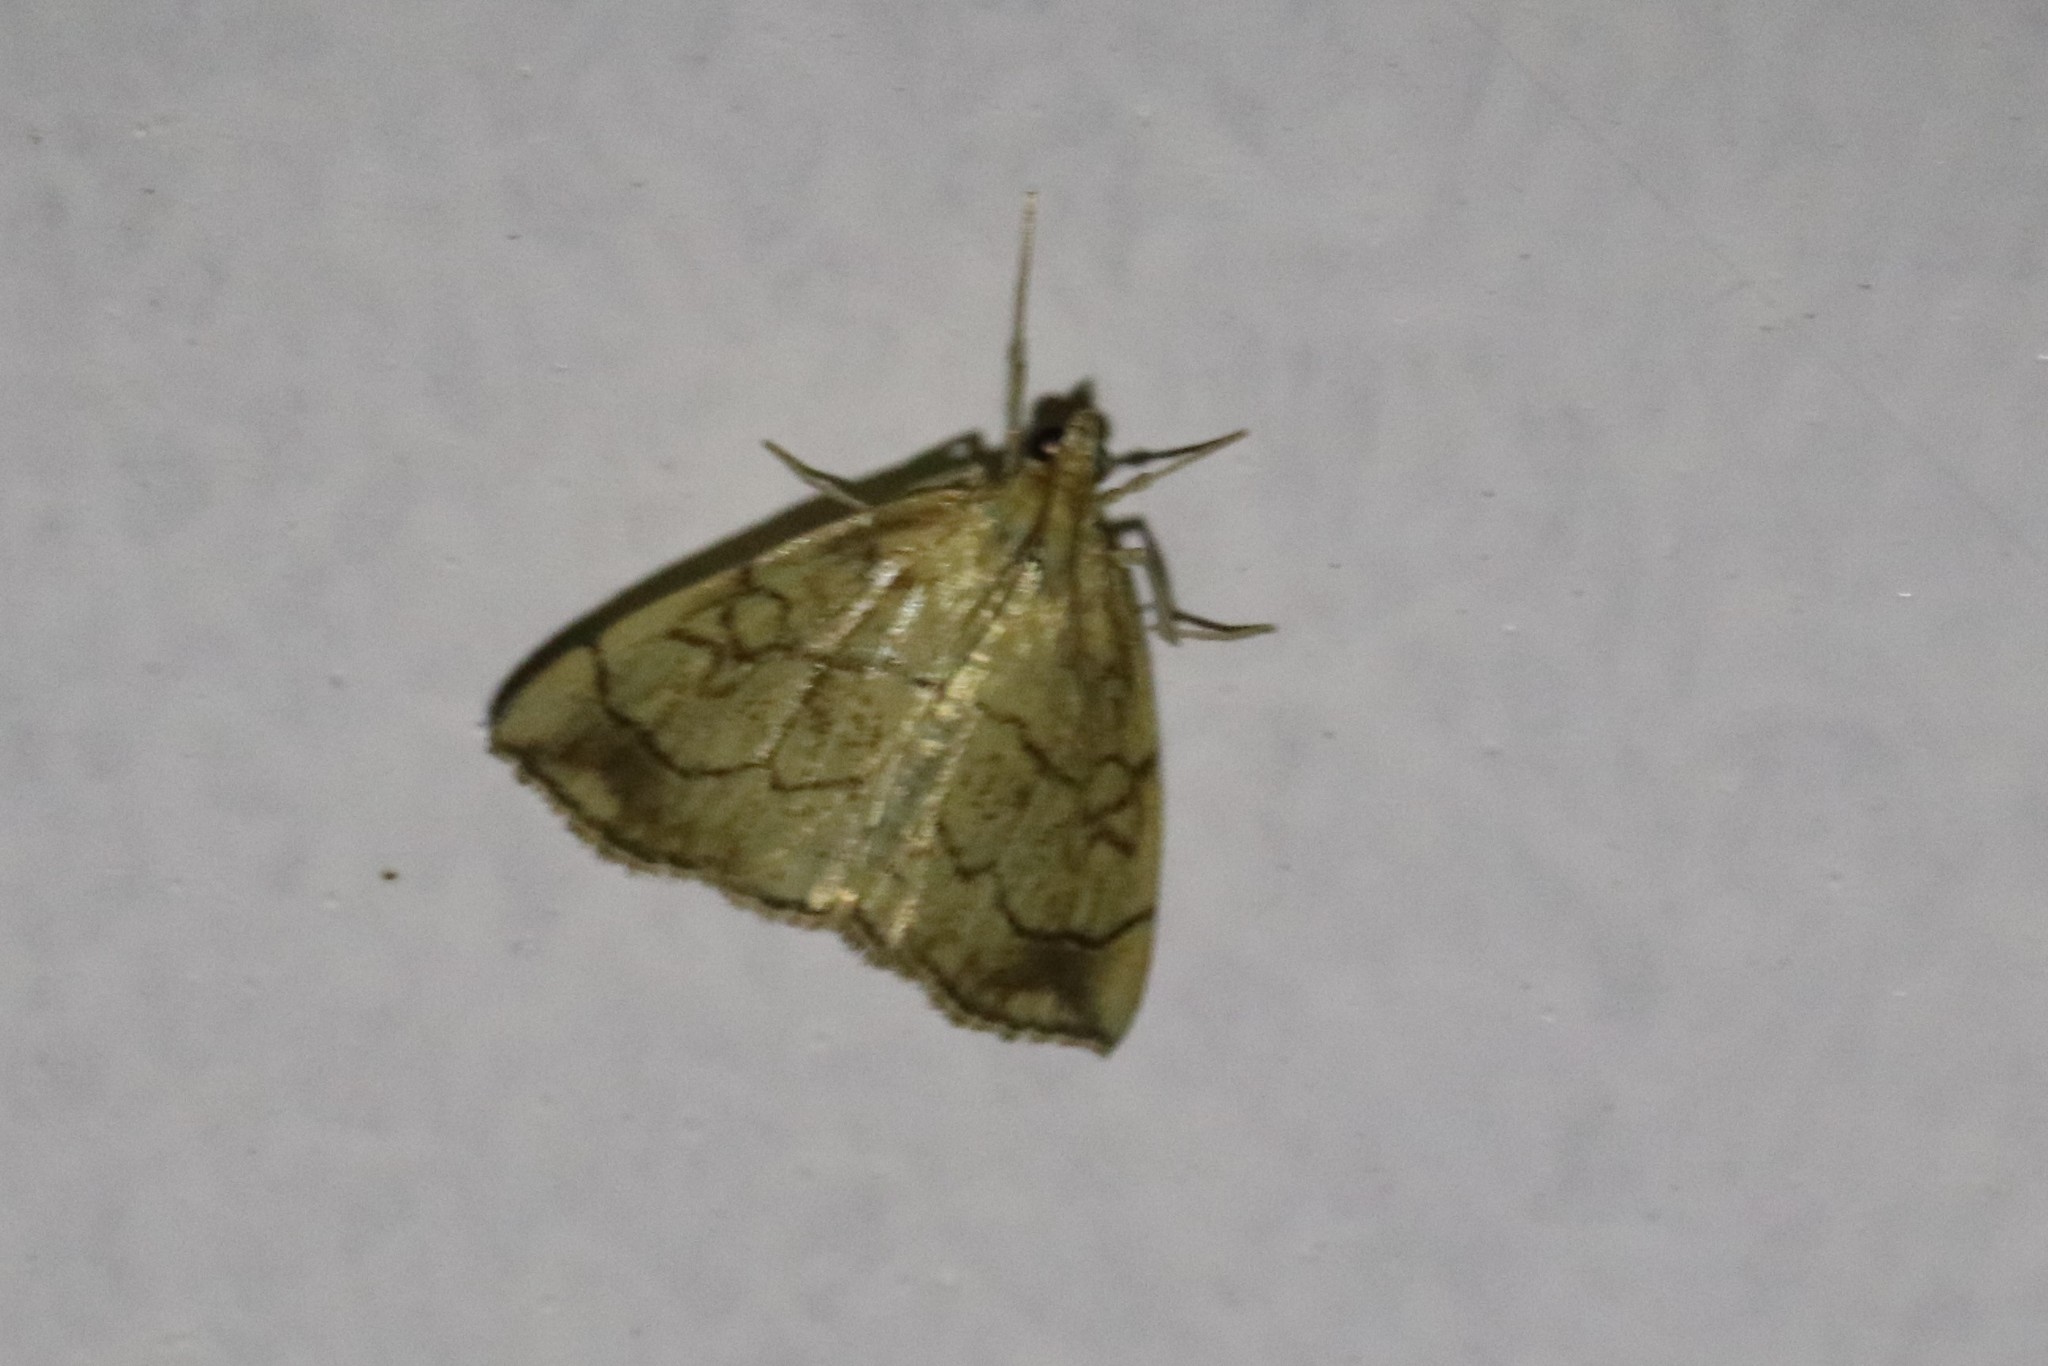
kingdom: Animalia
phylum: Arthropoda
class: Insecta
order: Lepidoptera
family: Crambidae
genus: Evergestis
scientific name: Evergestis pallidata
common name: Chequered pearl
